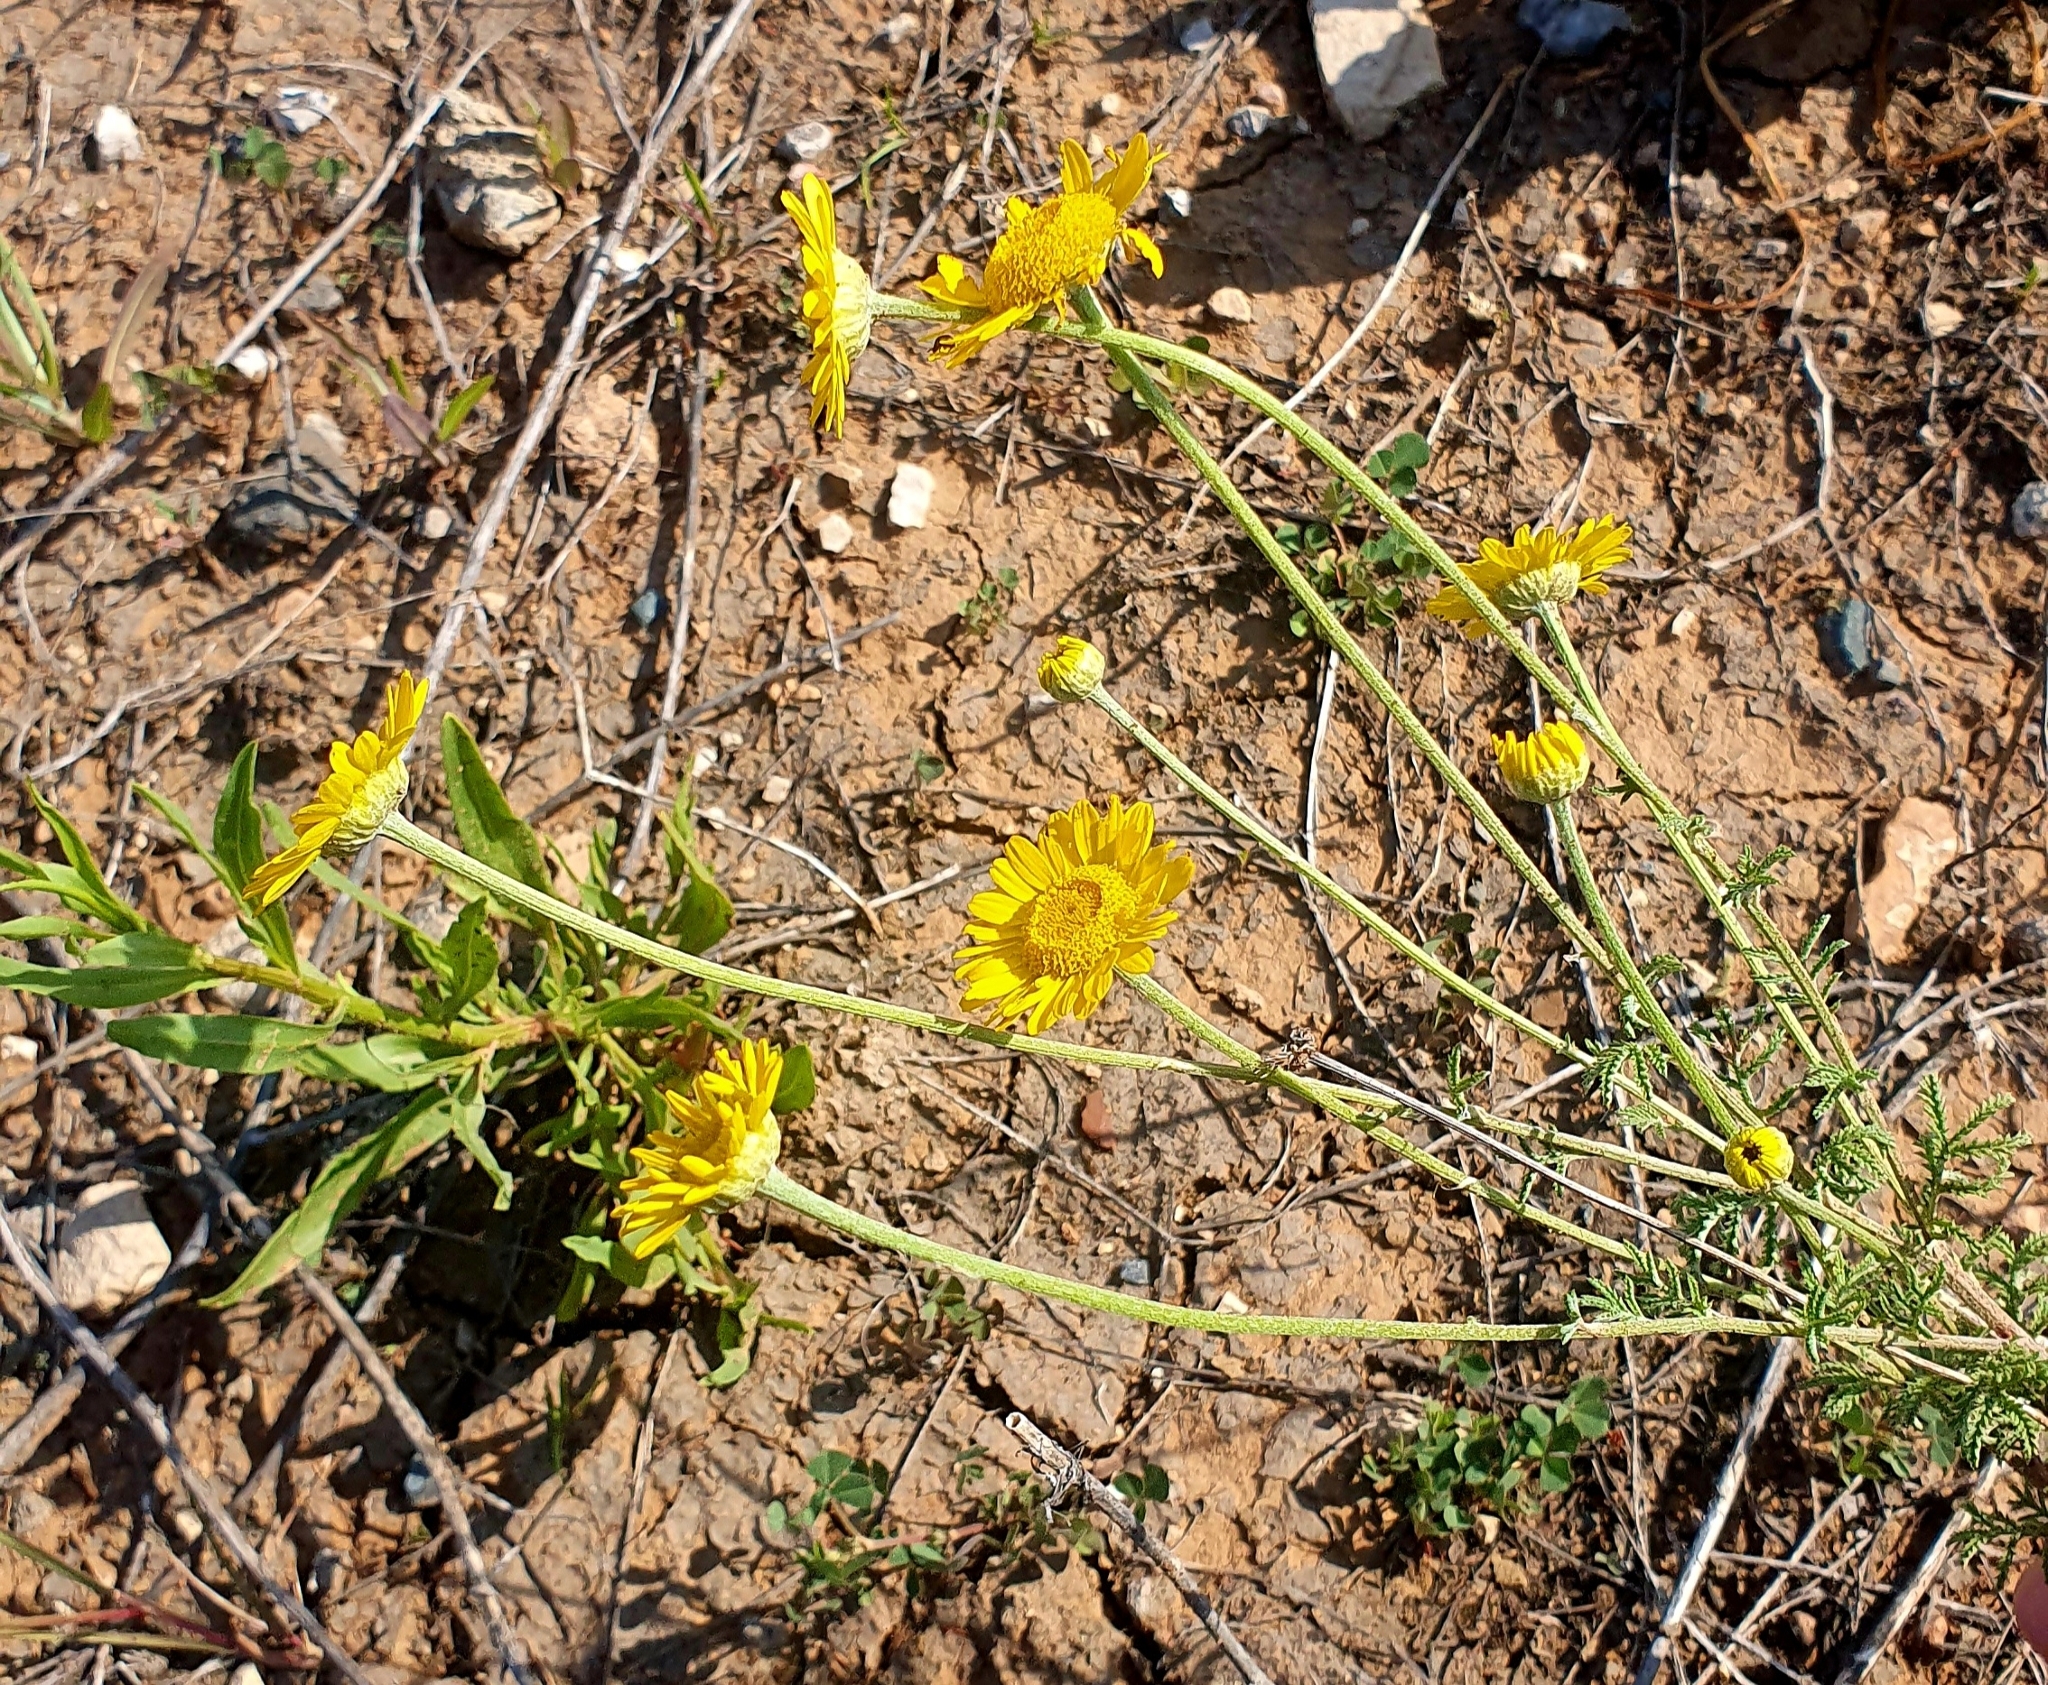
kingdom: Plantae
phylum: Tracheophyta
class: Magnoliopsida
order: Asterales
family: Asteraceae
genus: Cota
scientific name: Cota tinctoria
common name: Golden chamomile
